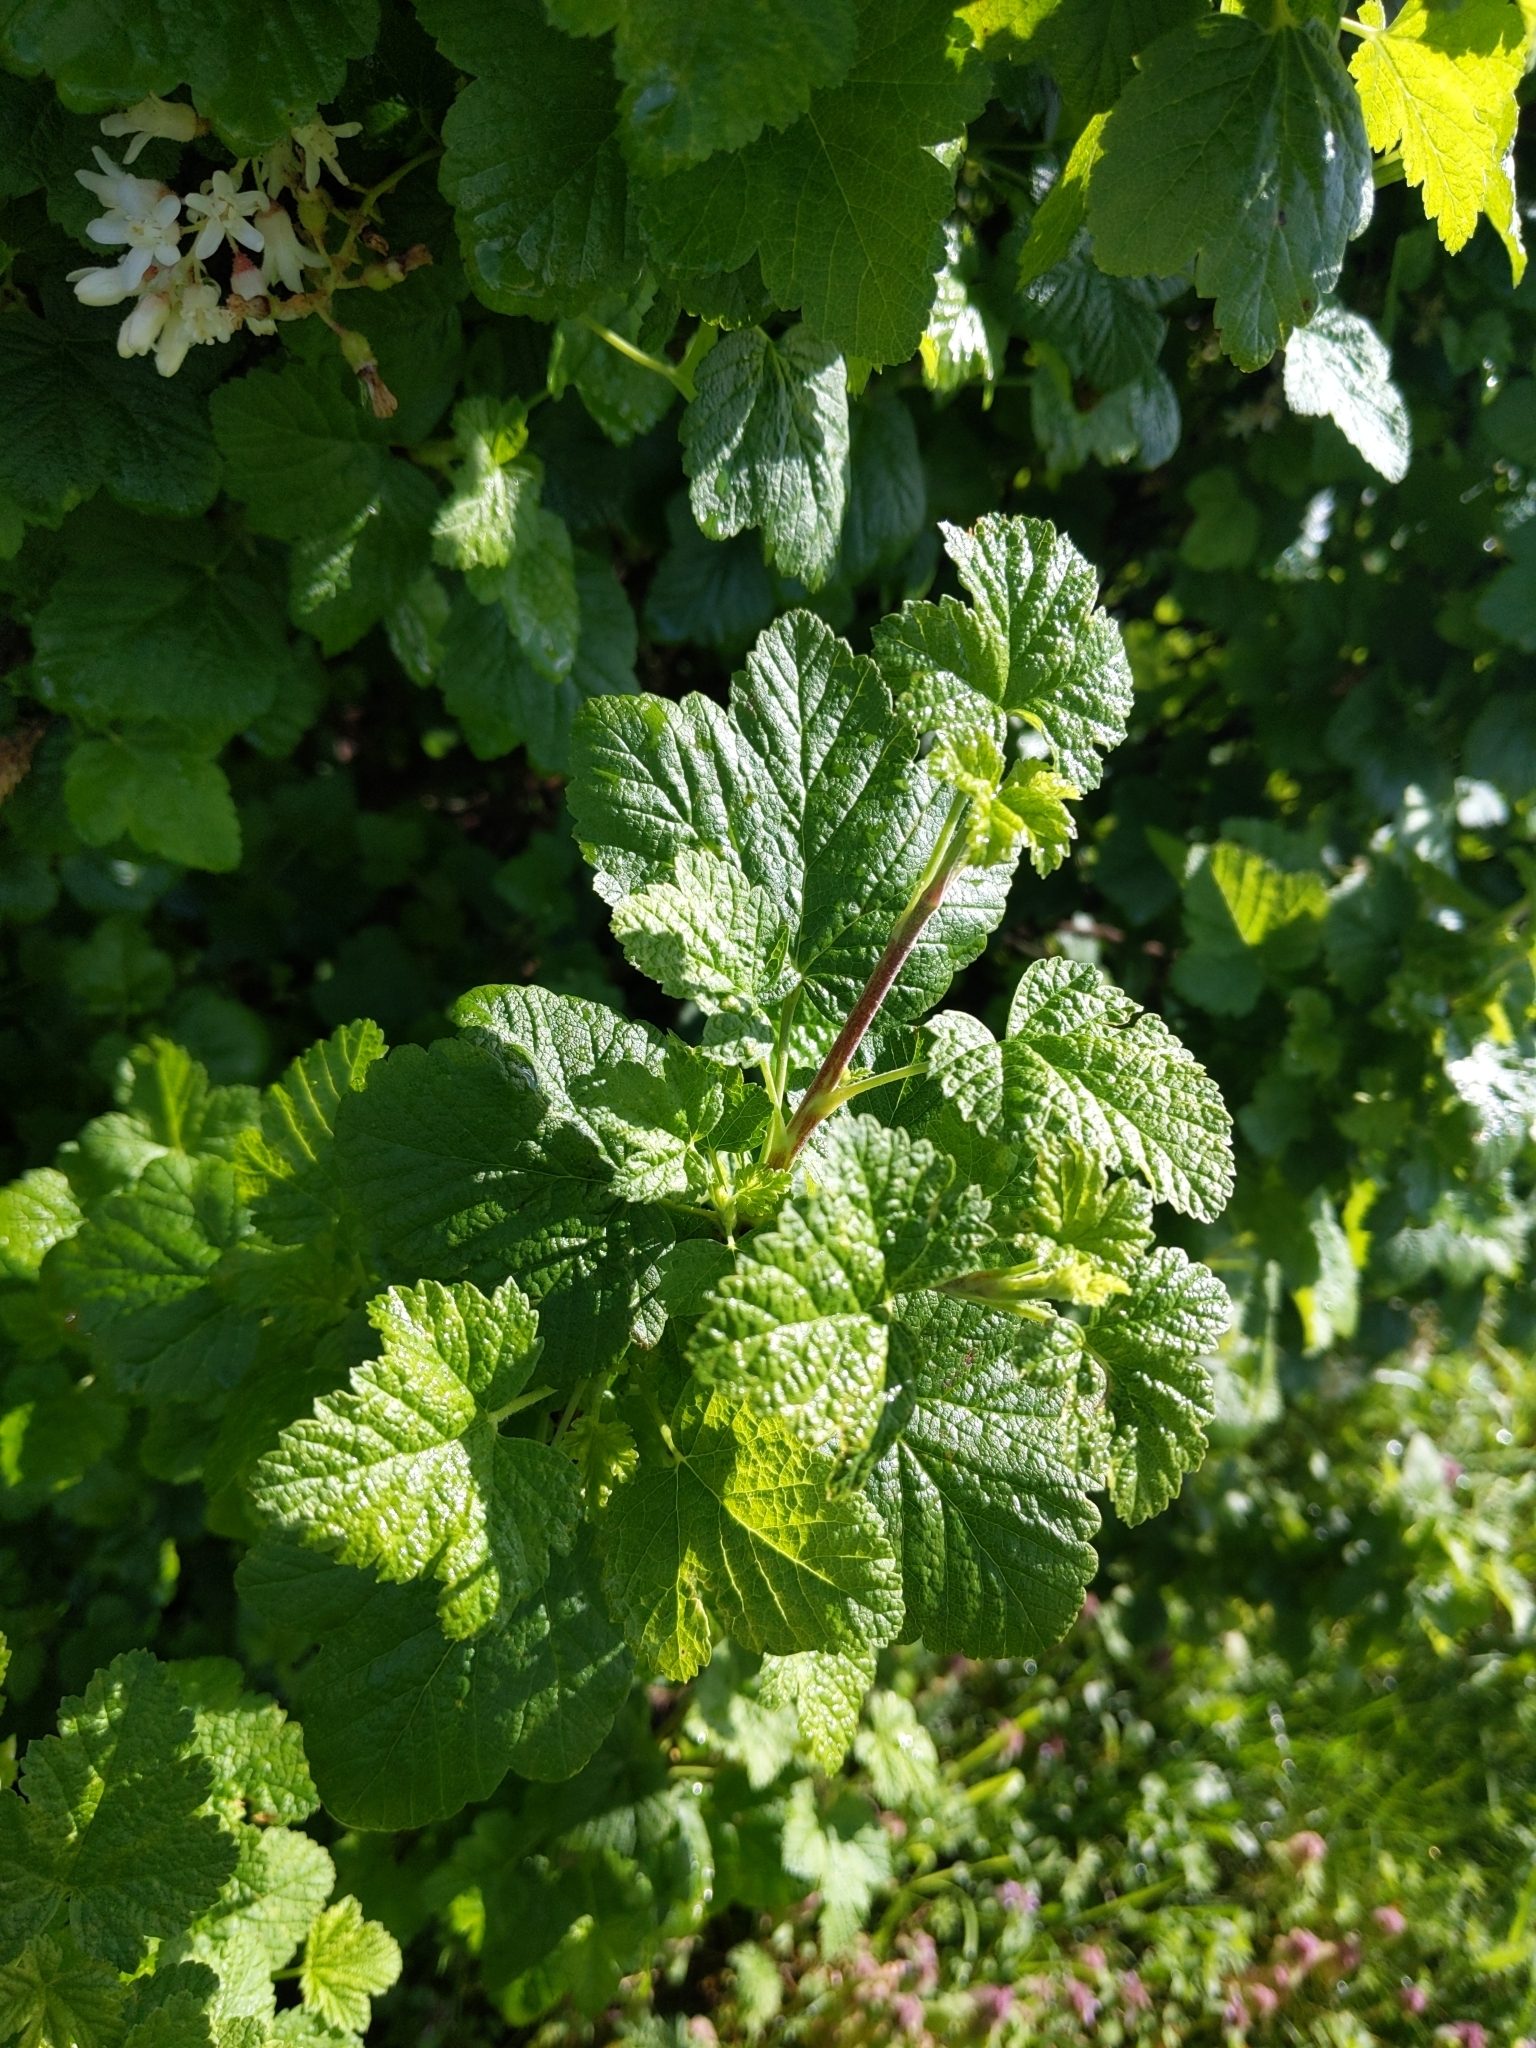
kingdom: Plantae
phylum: Tracheophyta
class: Magnoliopsida
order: Saxifragales
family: Grossulariaceae
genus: Ribes
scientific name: Ribes sanguineum
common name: Flowering currant
